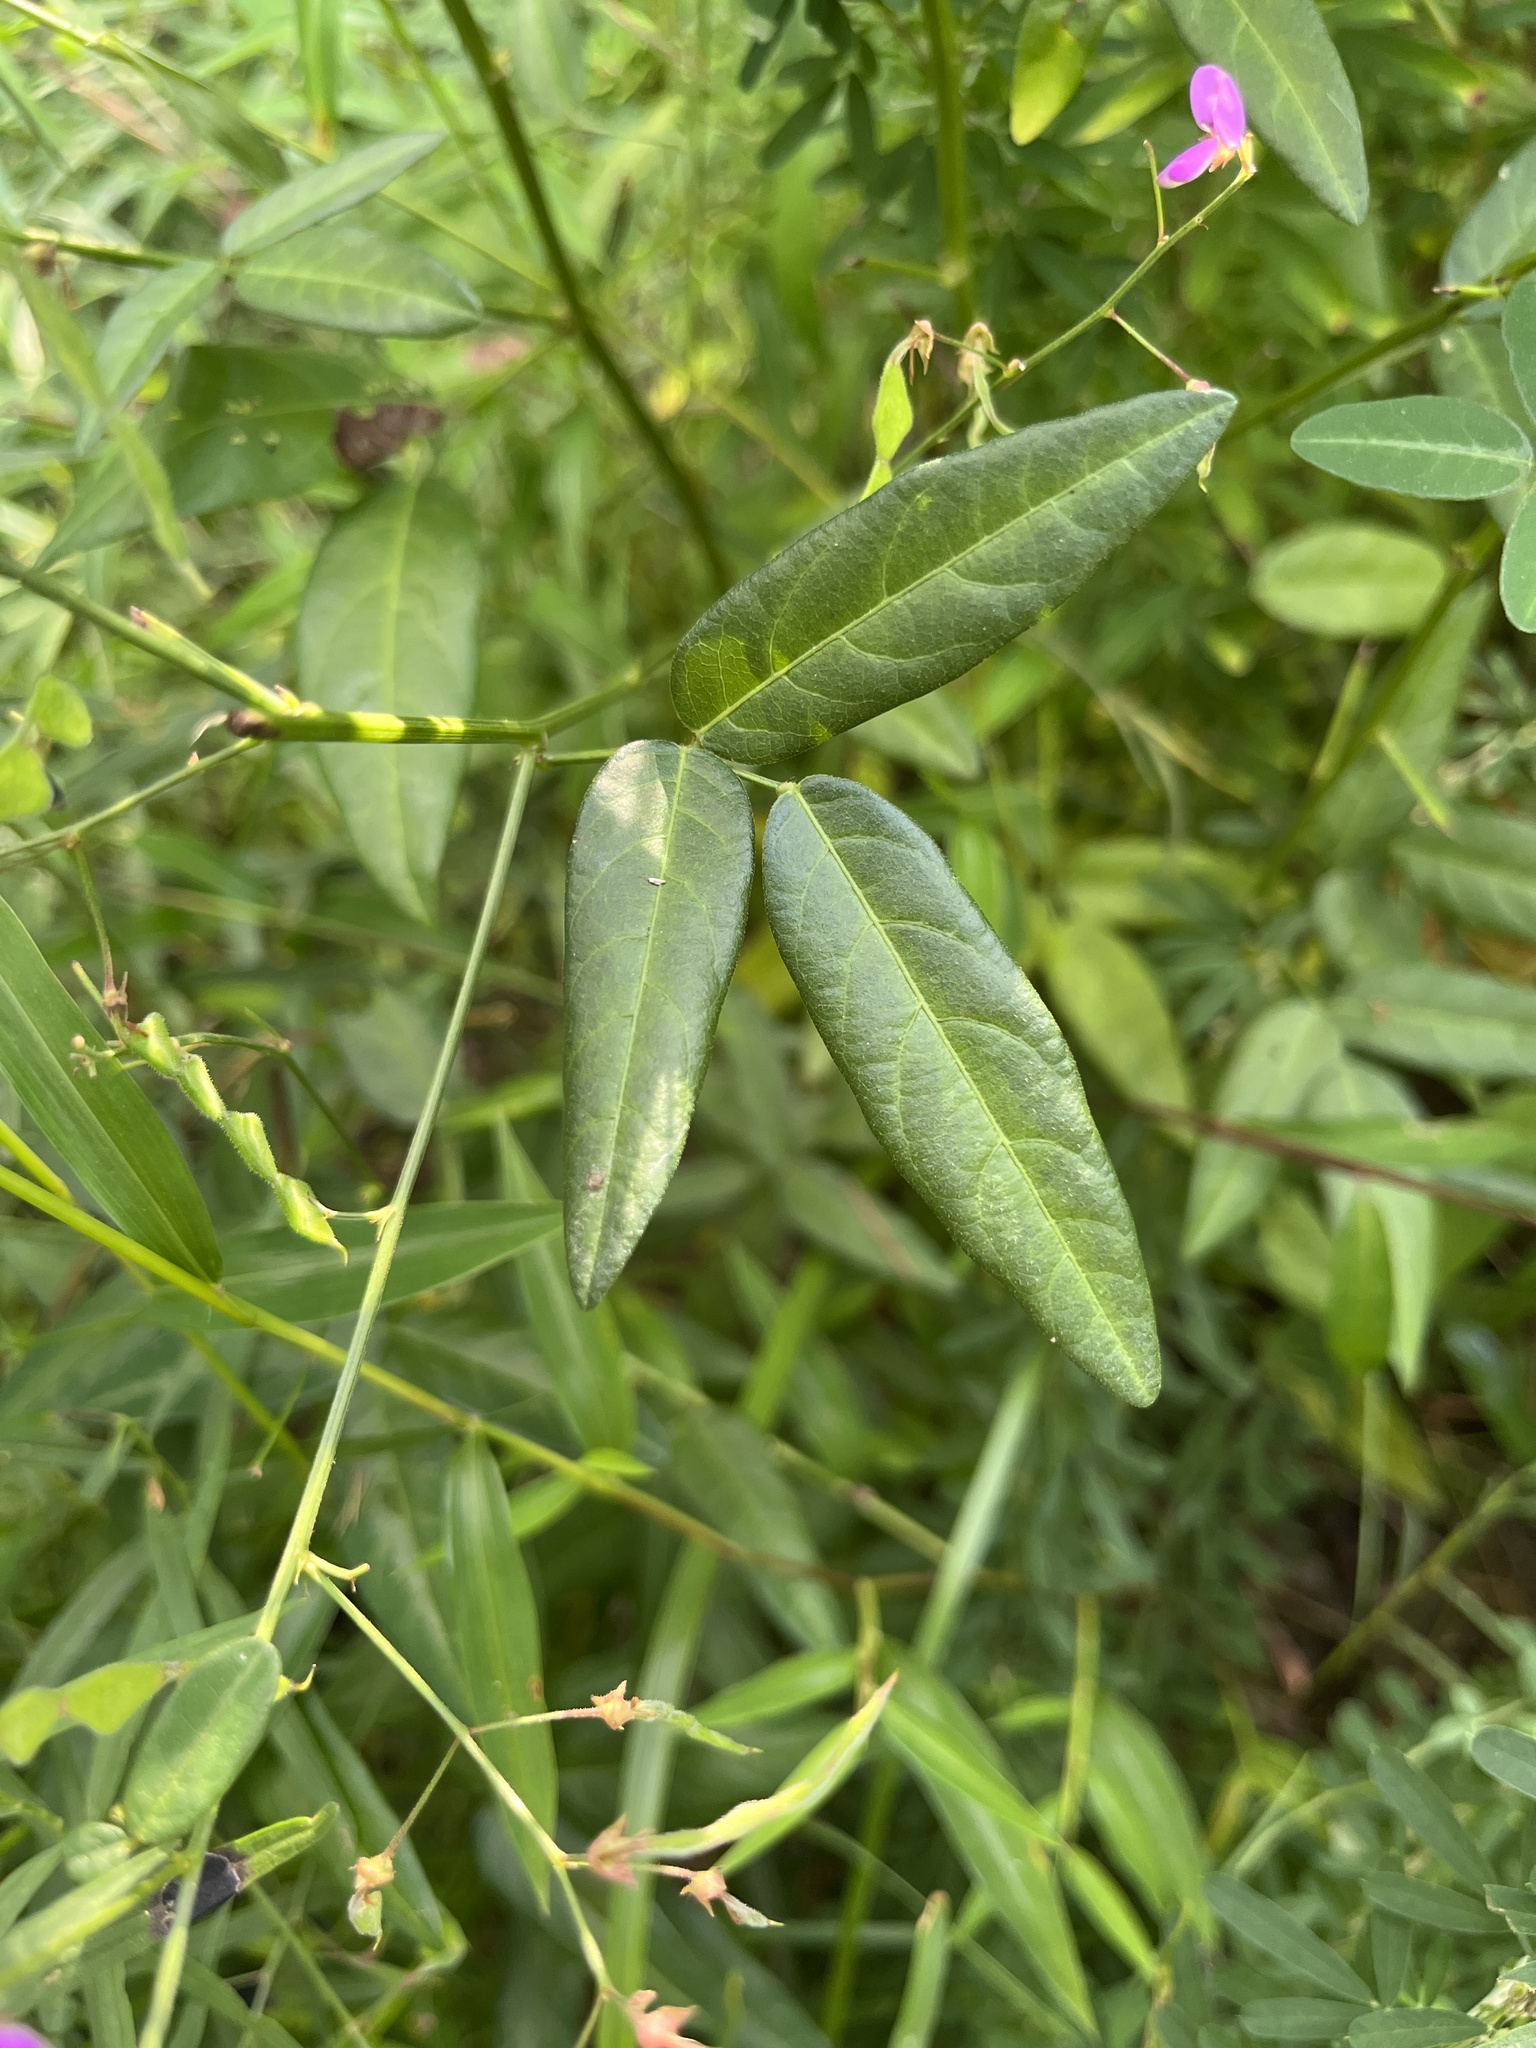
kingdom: Plantae
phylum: Tracheophyta
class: Magnoliopsida
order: Fabales
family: Fabaceae
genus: Desmodium
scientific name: Desmodium paniculatum
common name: Panicled tick-clover
